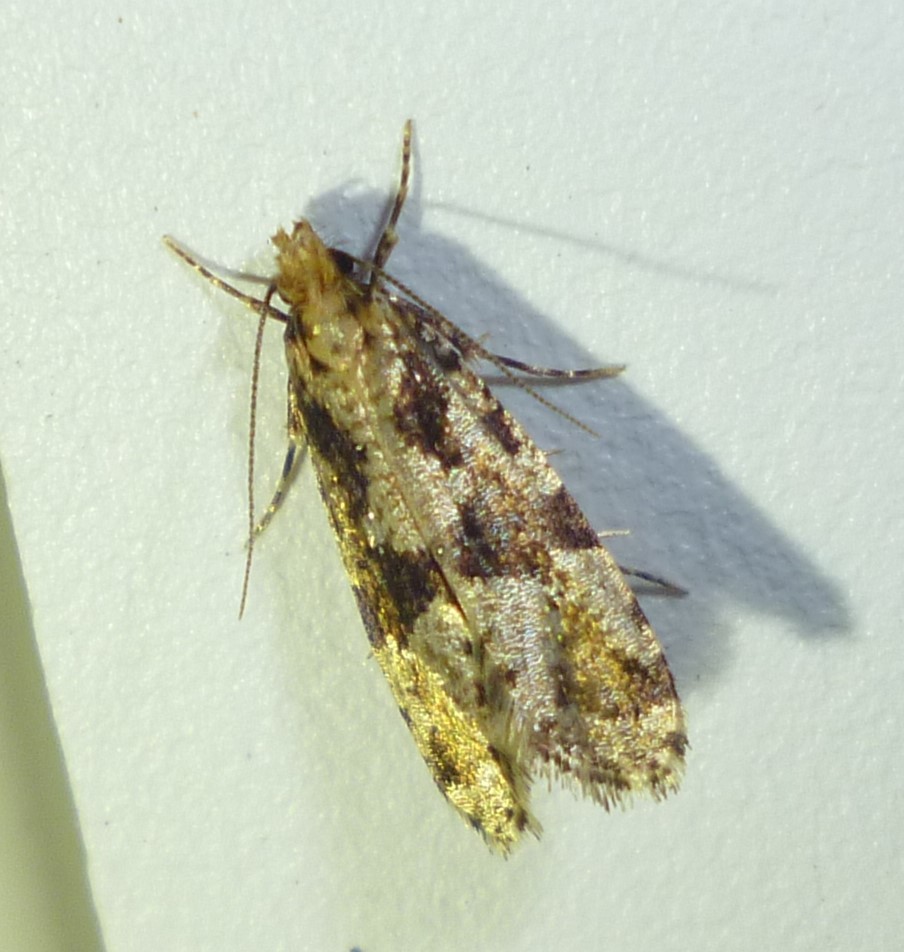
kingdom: Animalia
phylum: Arthropoda
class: Insecta
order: Lepidoptera
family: Tineidae
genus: Scardiella
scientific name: Scardiella approximatella
